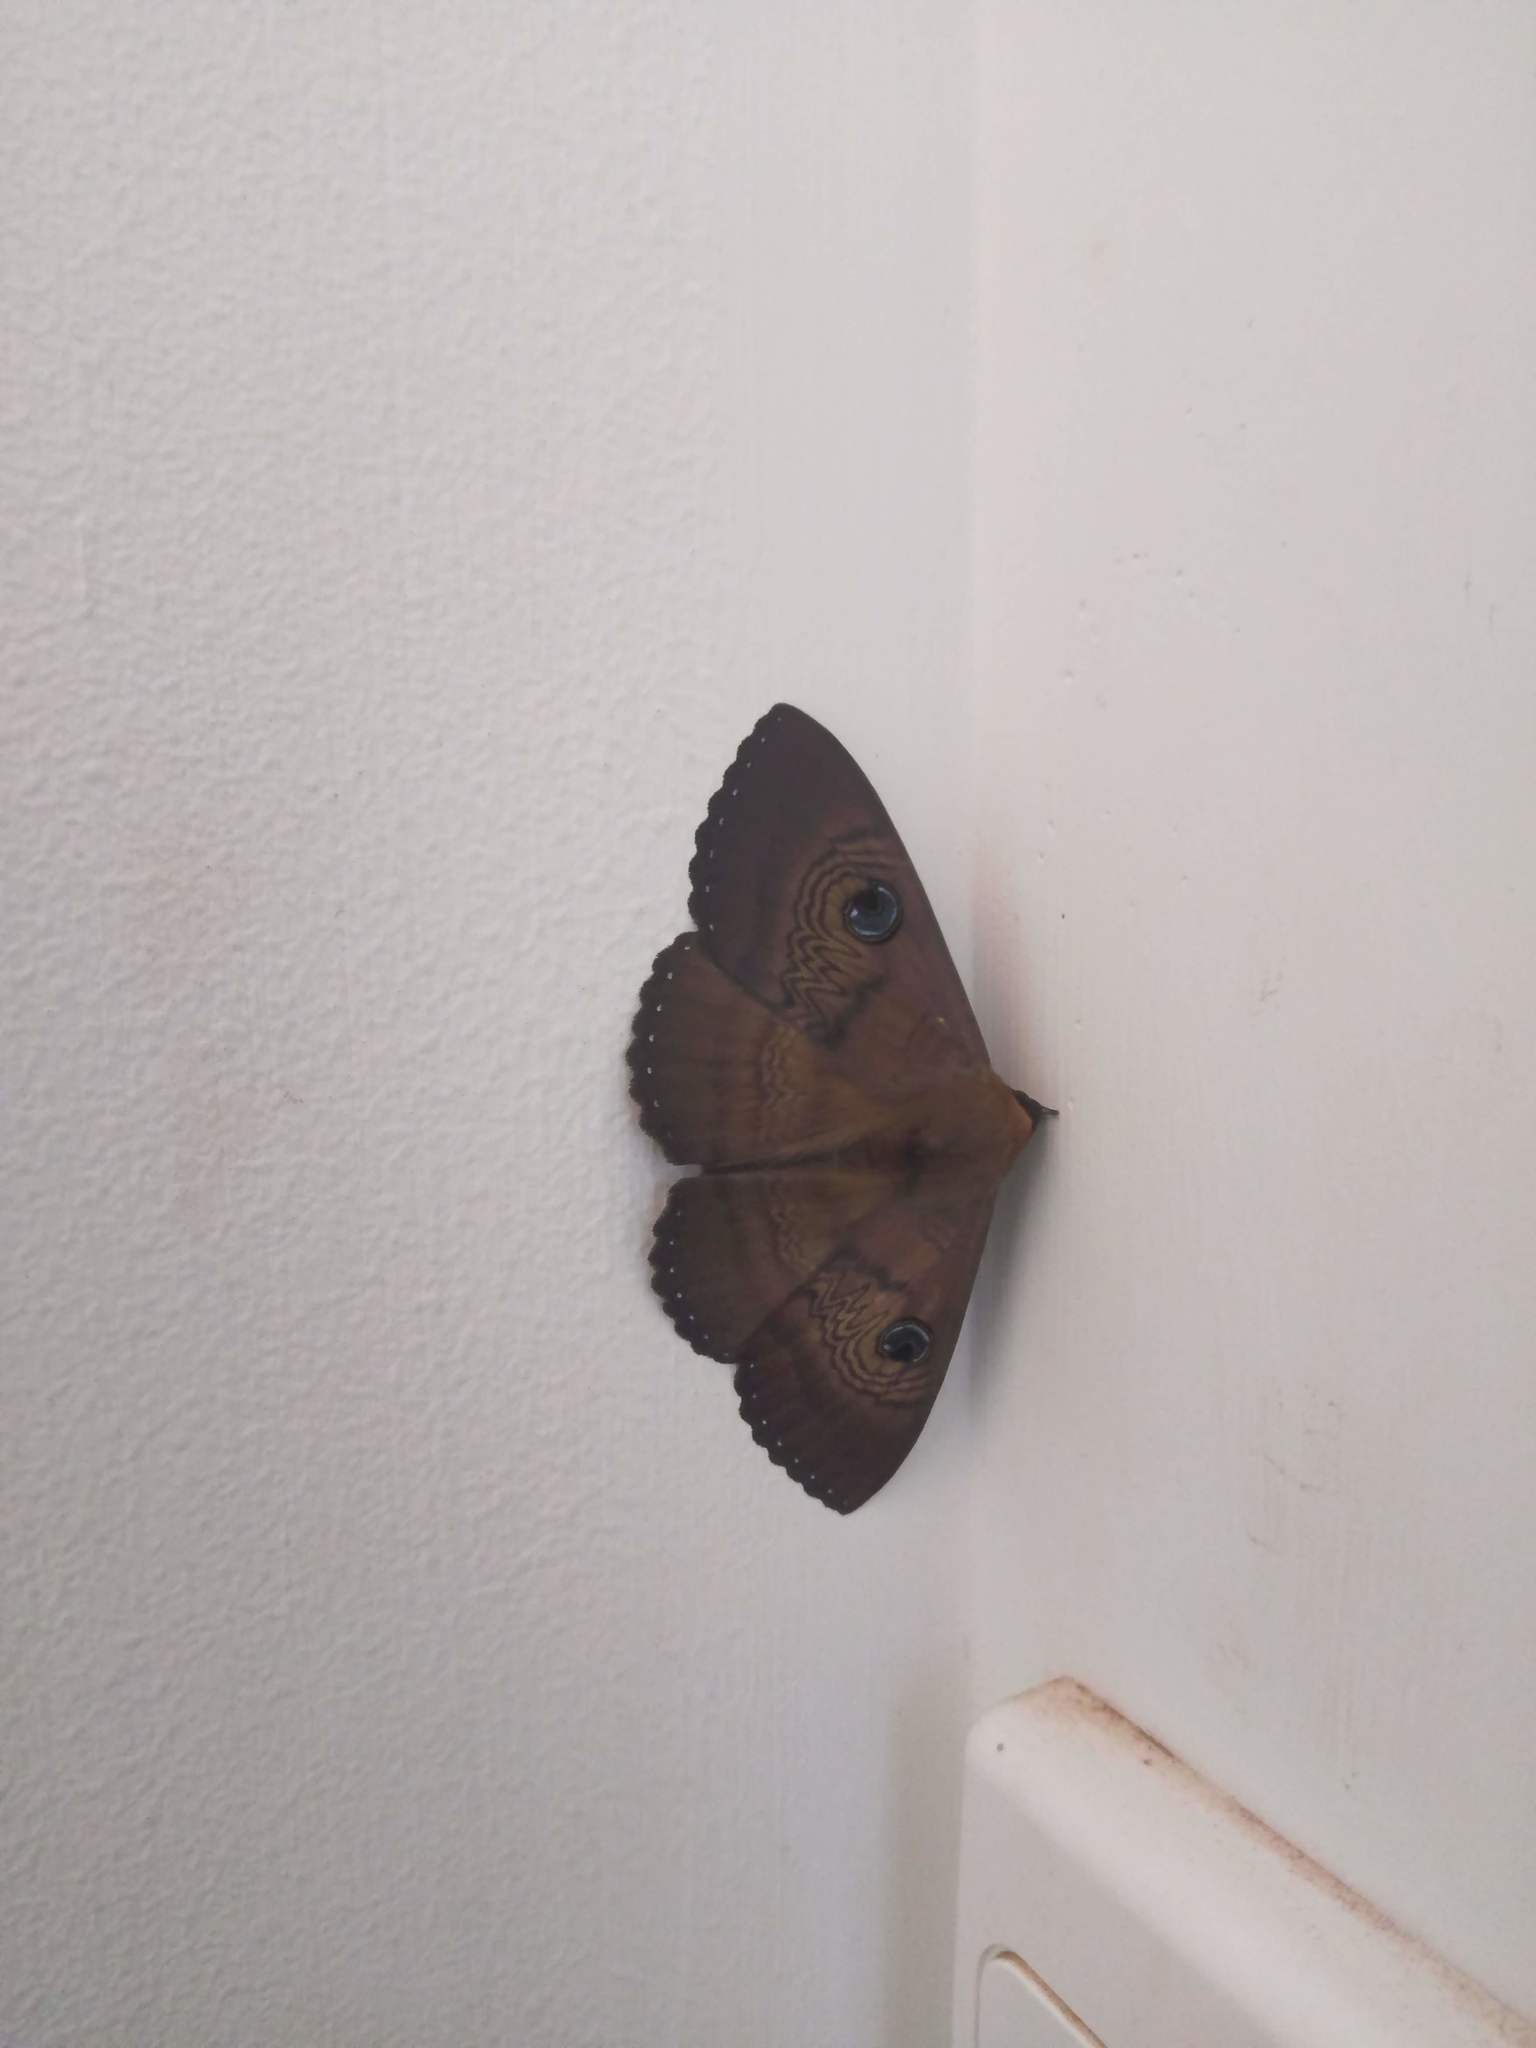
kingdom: Animalia
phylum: Arthropoda
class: Insecta
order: Lepidoptera
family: Erebidae
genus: Dasypodia
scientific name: Dasypodia selenophora
